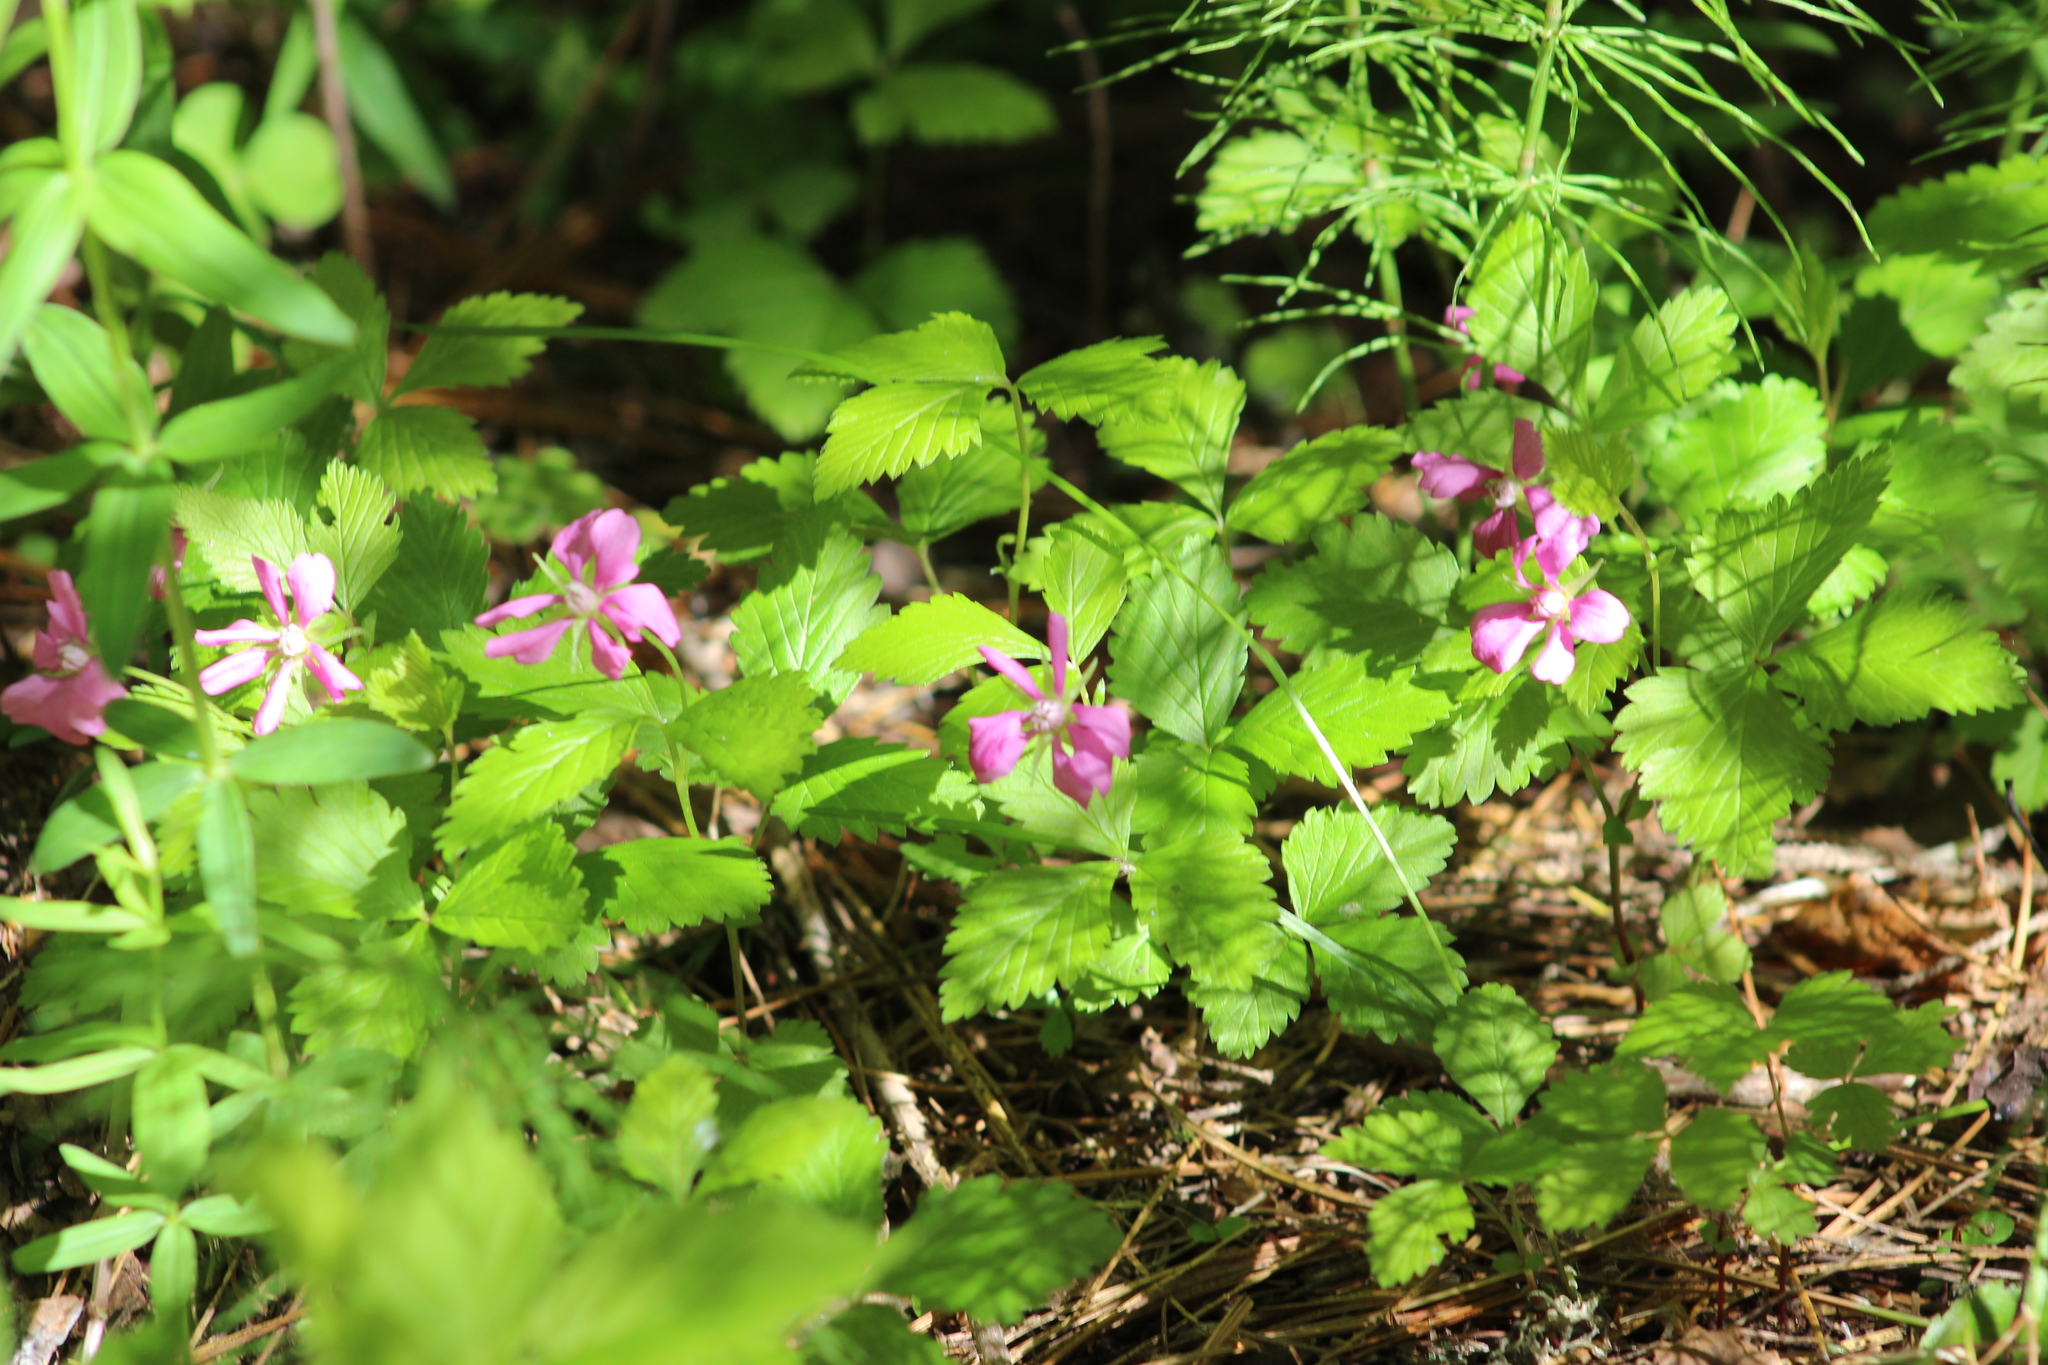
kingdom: Plantae
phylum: Tracheophyta
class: Magnoliopsida
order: Rosales
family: Rosaceae
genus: Rubus
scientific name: Rubus arcticus
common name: Arctic bramble
